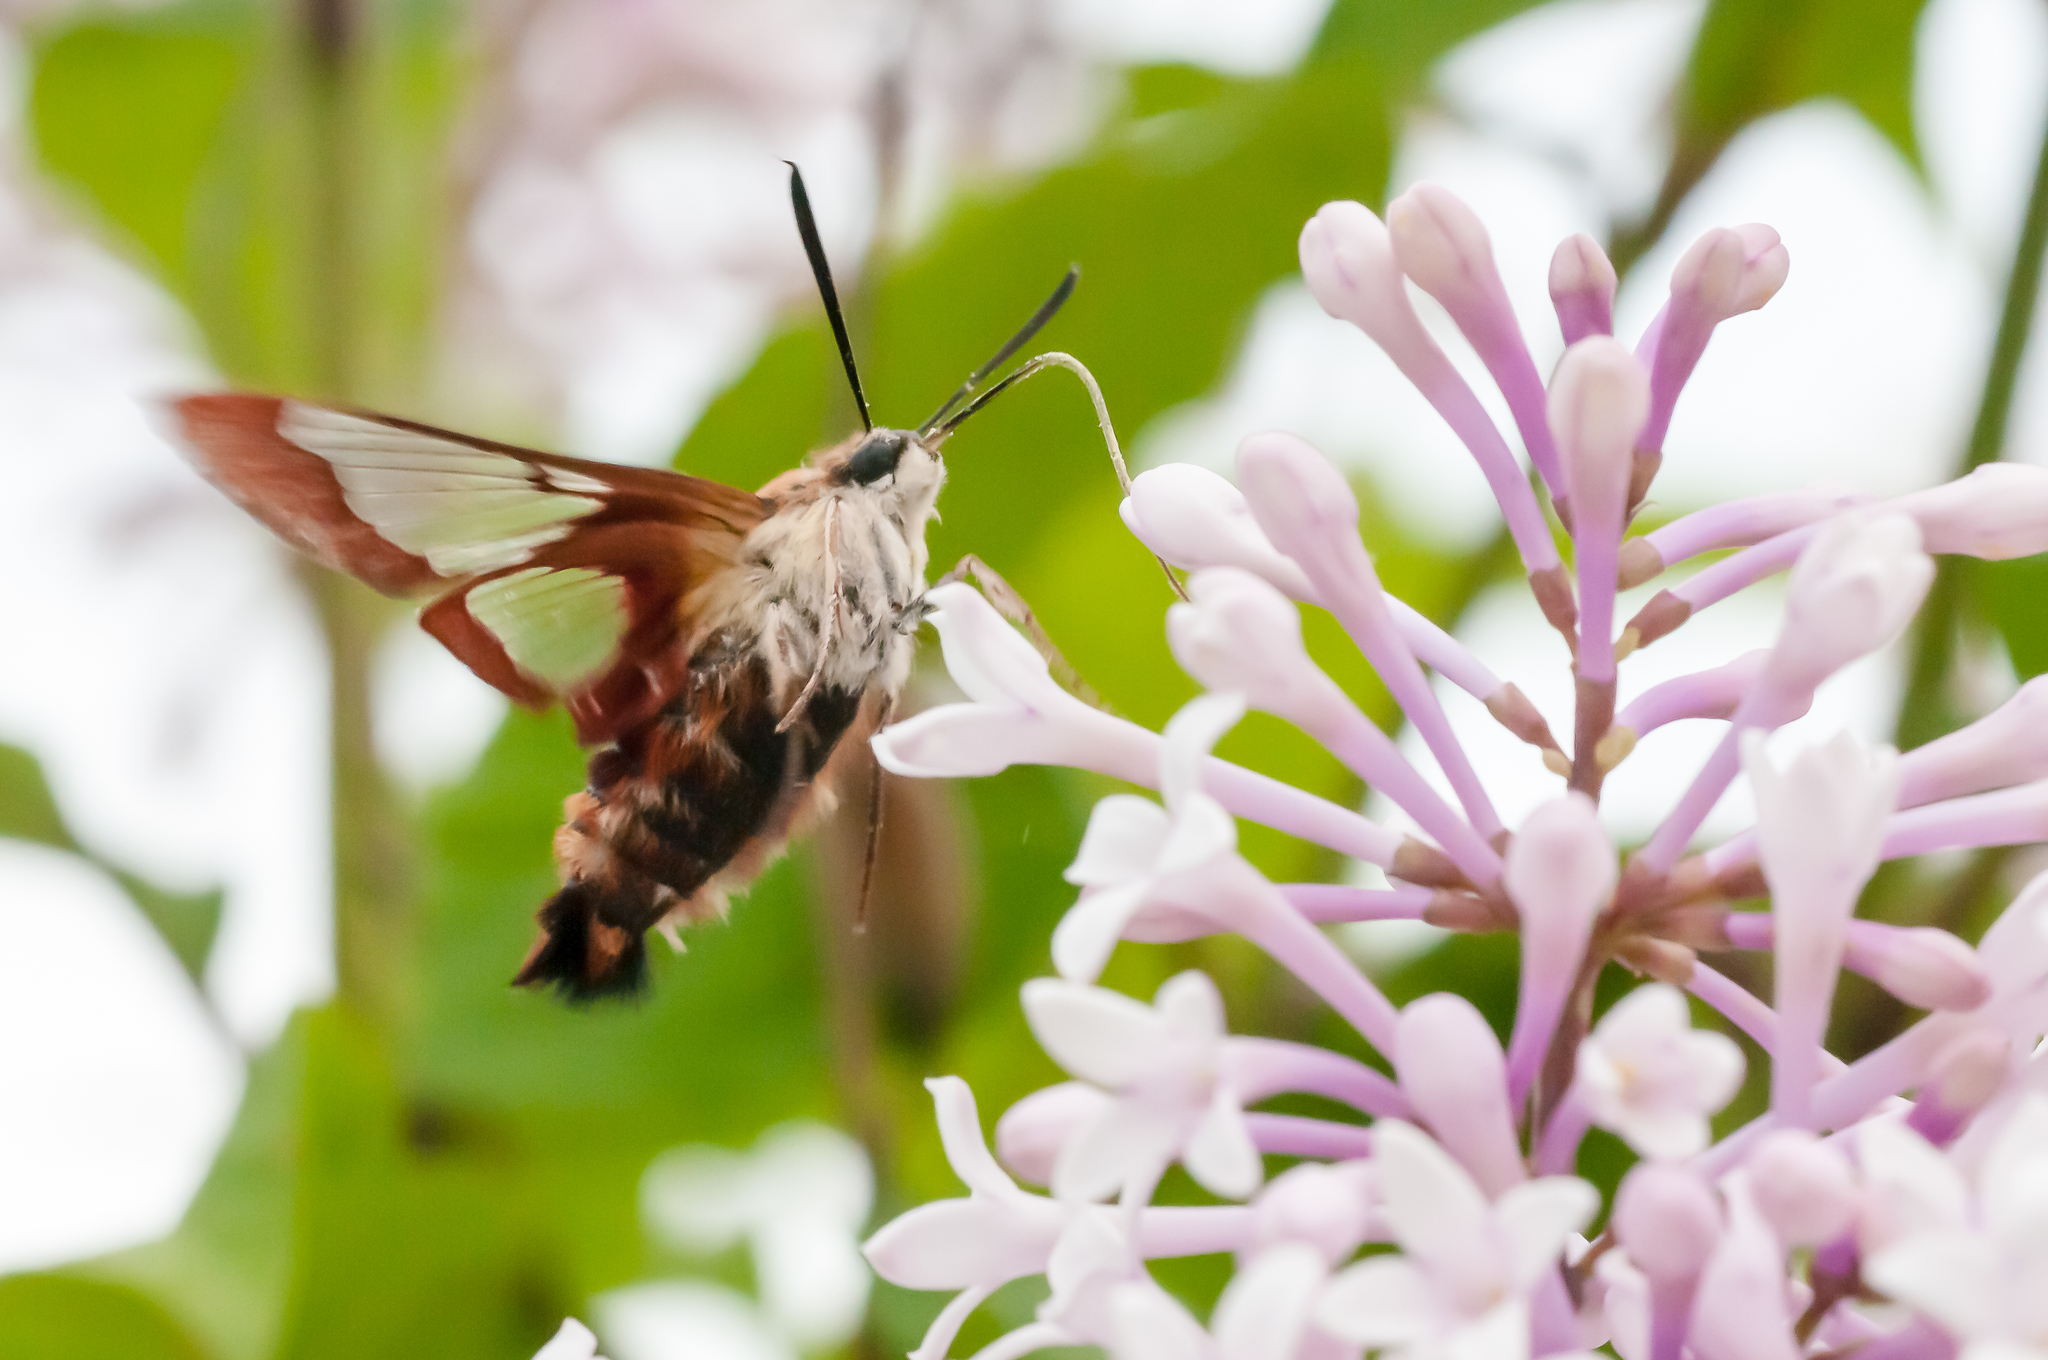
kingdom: Animalia
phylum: Arthropoda
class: Insecta
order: Lepidoptera
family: Sphingidae
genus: Hemaris
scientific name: Hemaris thysbe
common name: Common clear-wing
